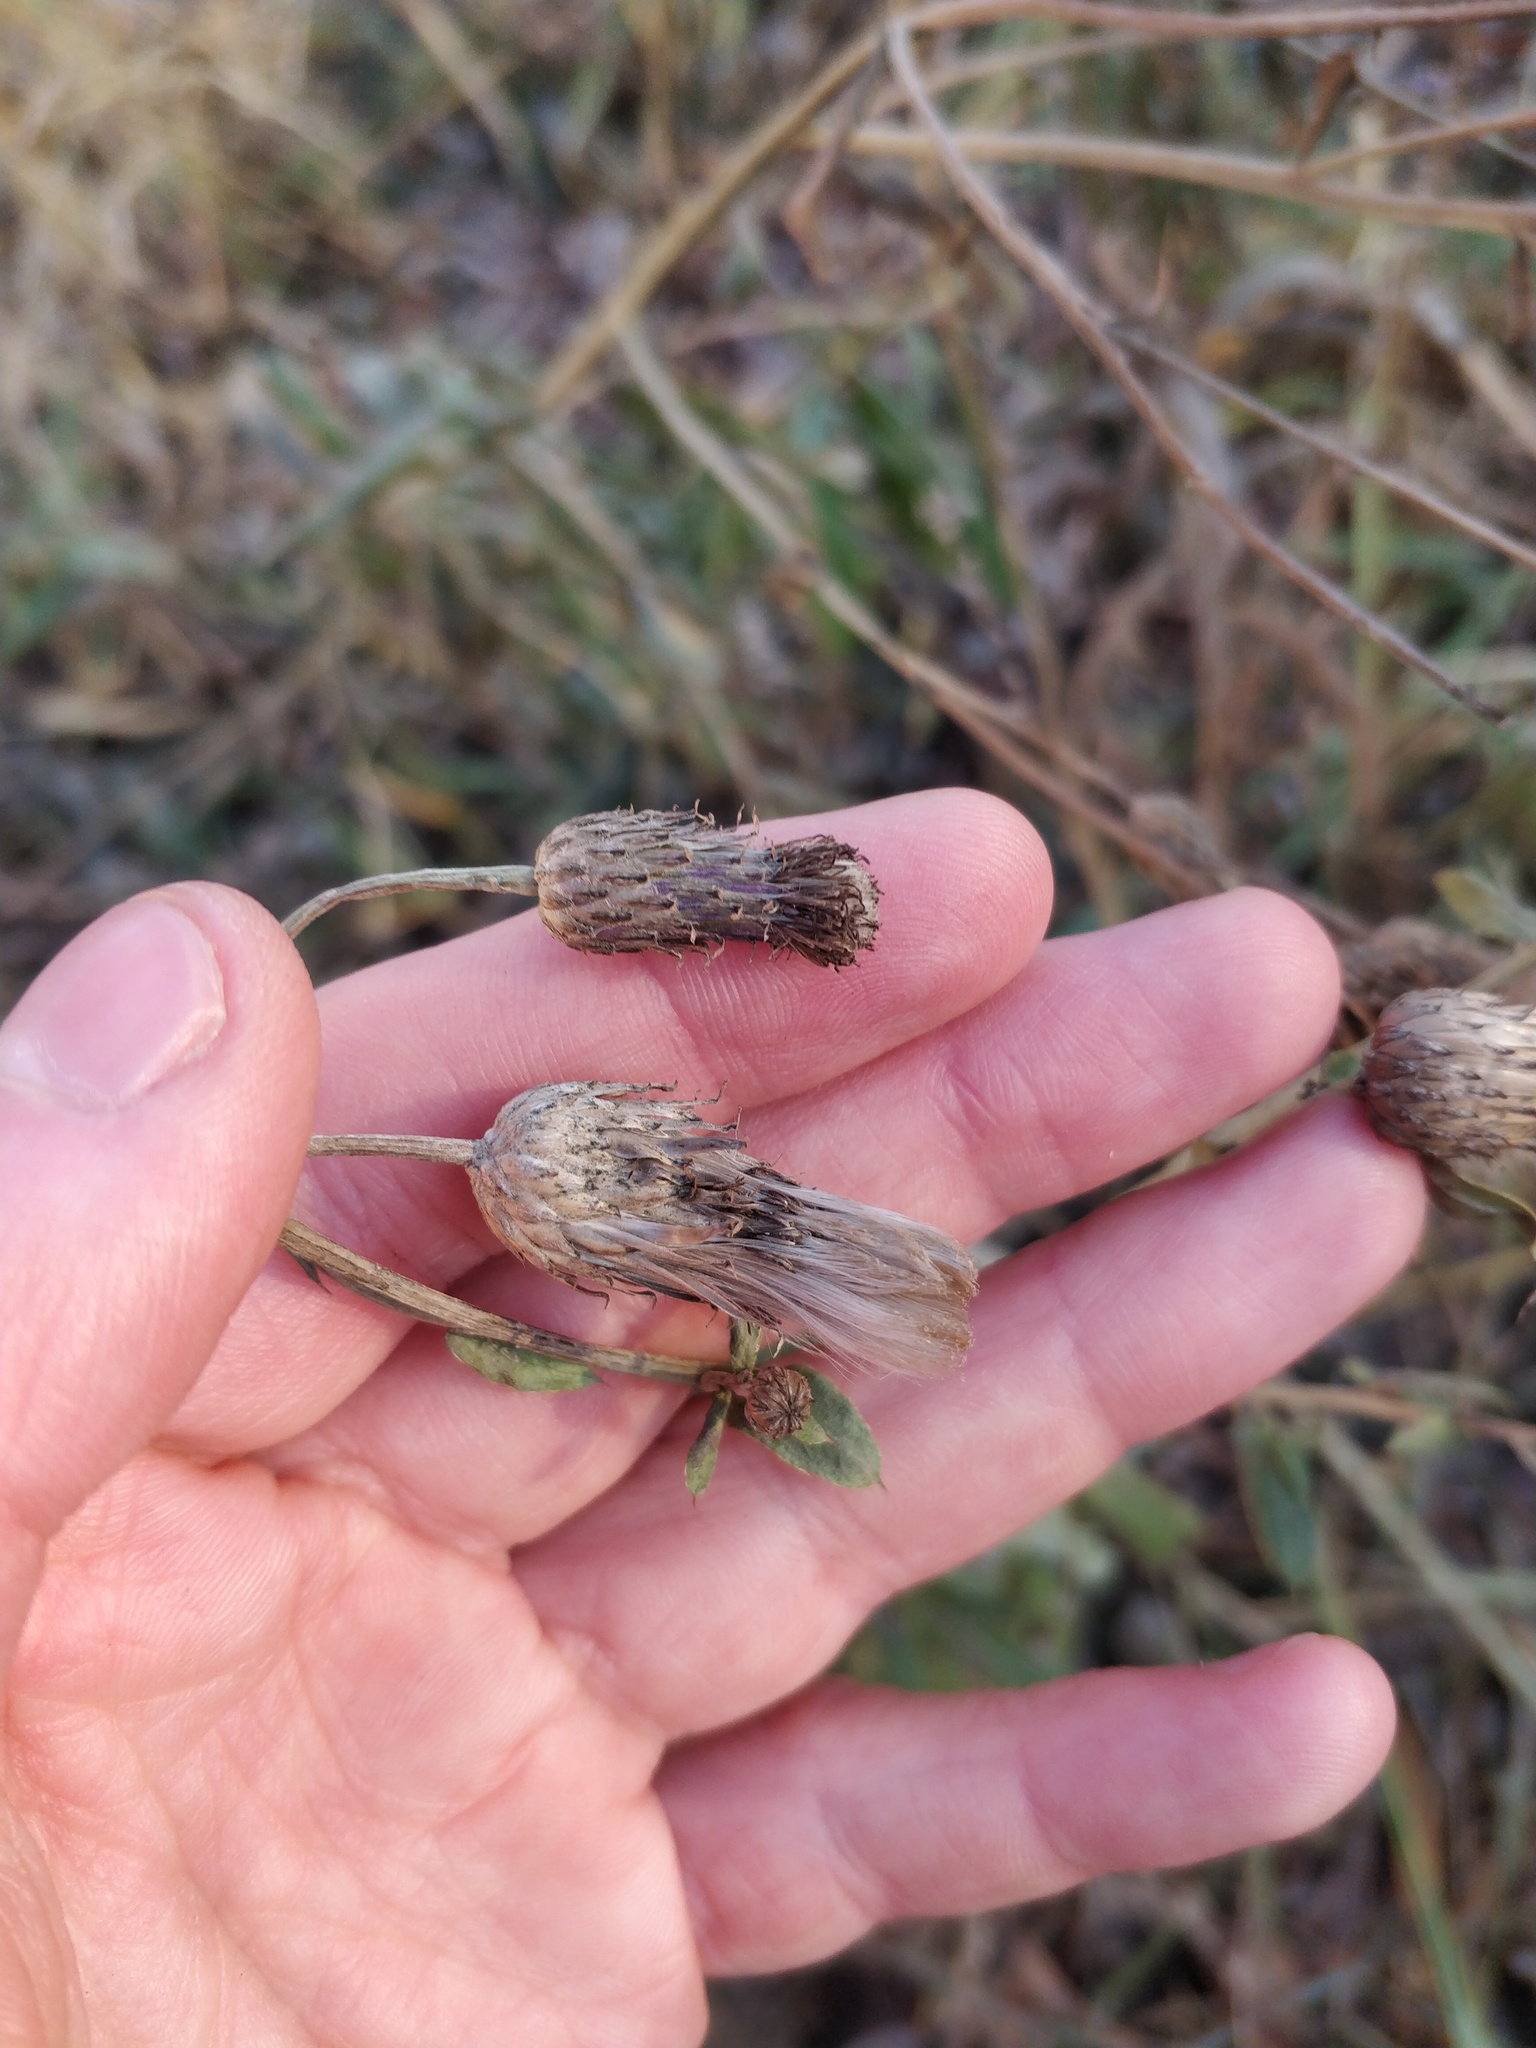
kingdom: Plantae
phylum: Tracheophyta
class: Magnoliopsida
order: Asterales
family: Asteraceae
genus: Cirsium
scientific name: Cirsium arvense
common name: Creeping thistle
